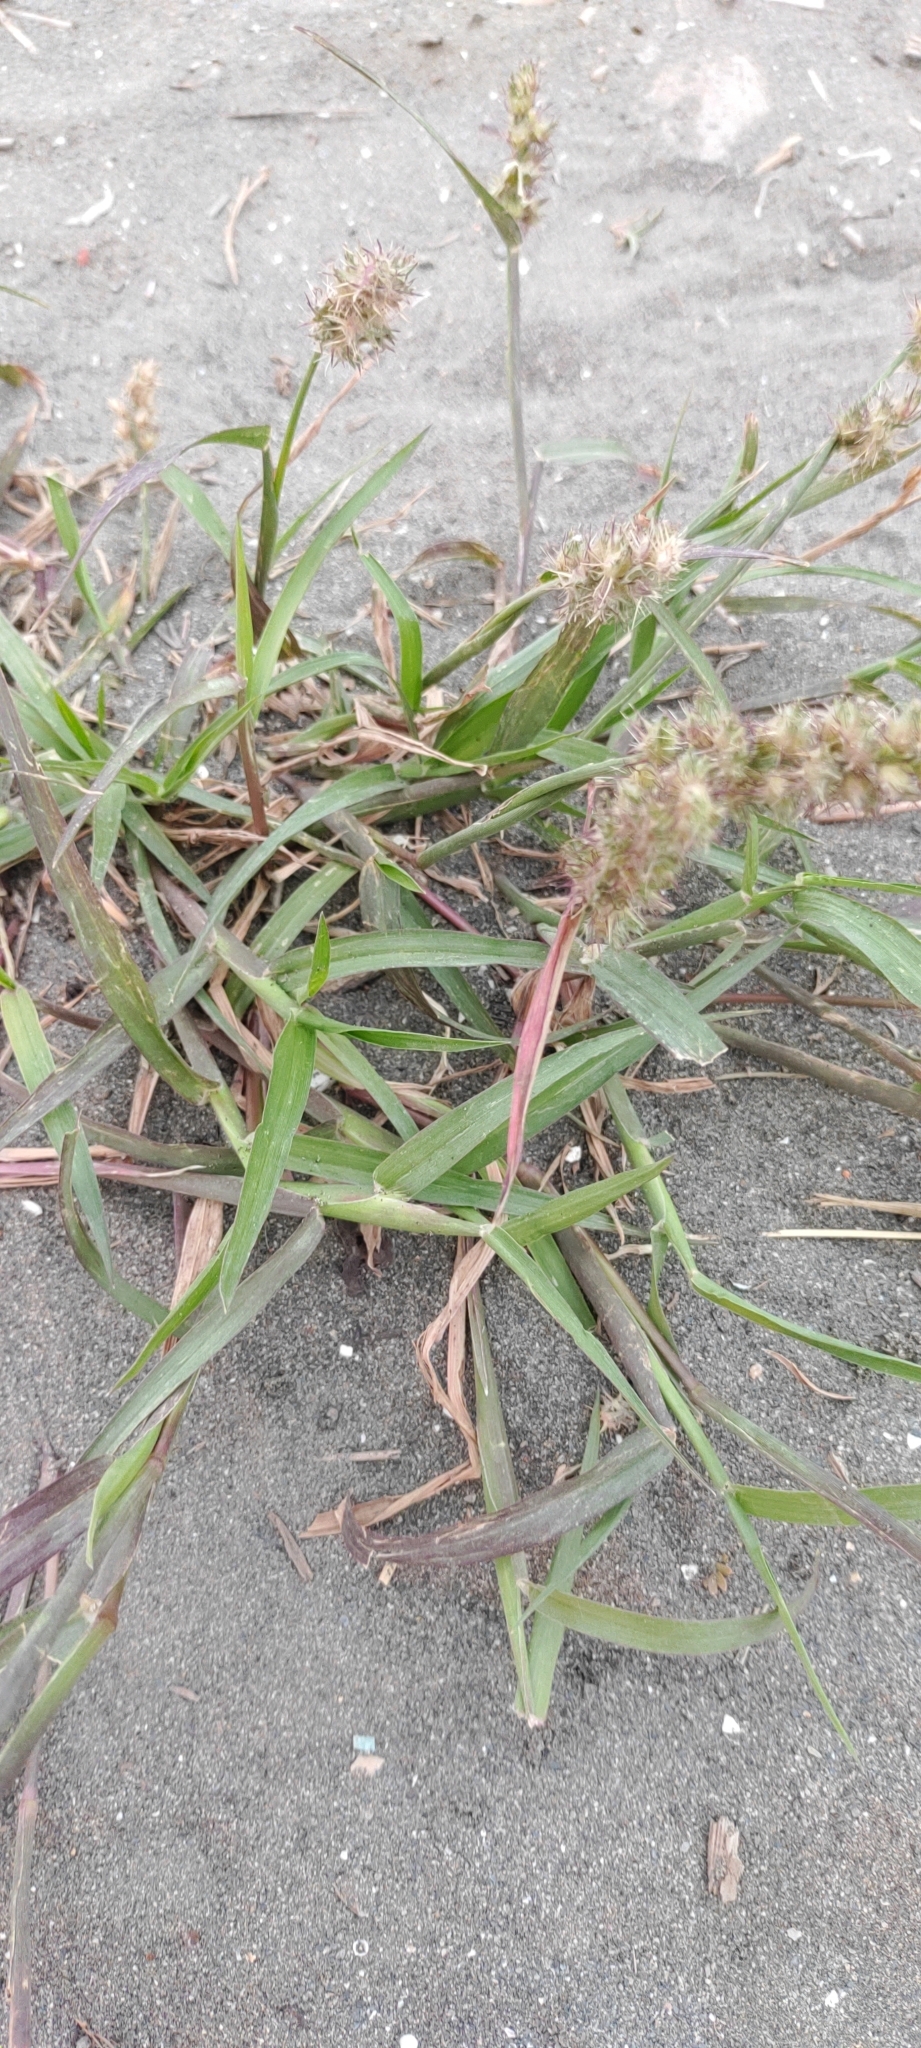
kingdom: Plantae
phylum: Tracheophyta
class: Liliopsida
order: Poales
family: Poaceae
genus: Cenchrus
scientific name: Cenchrus echinatus
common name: Southern sandbur
